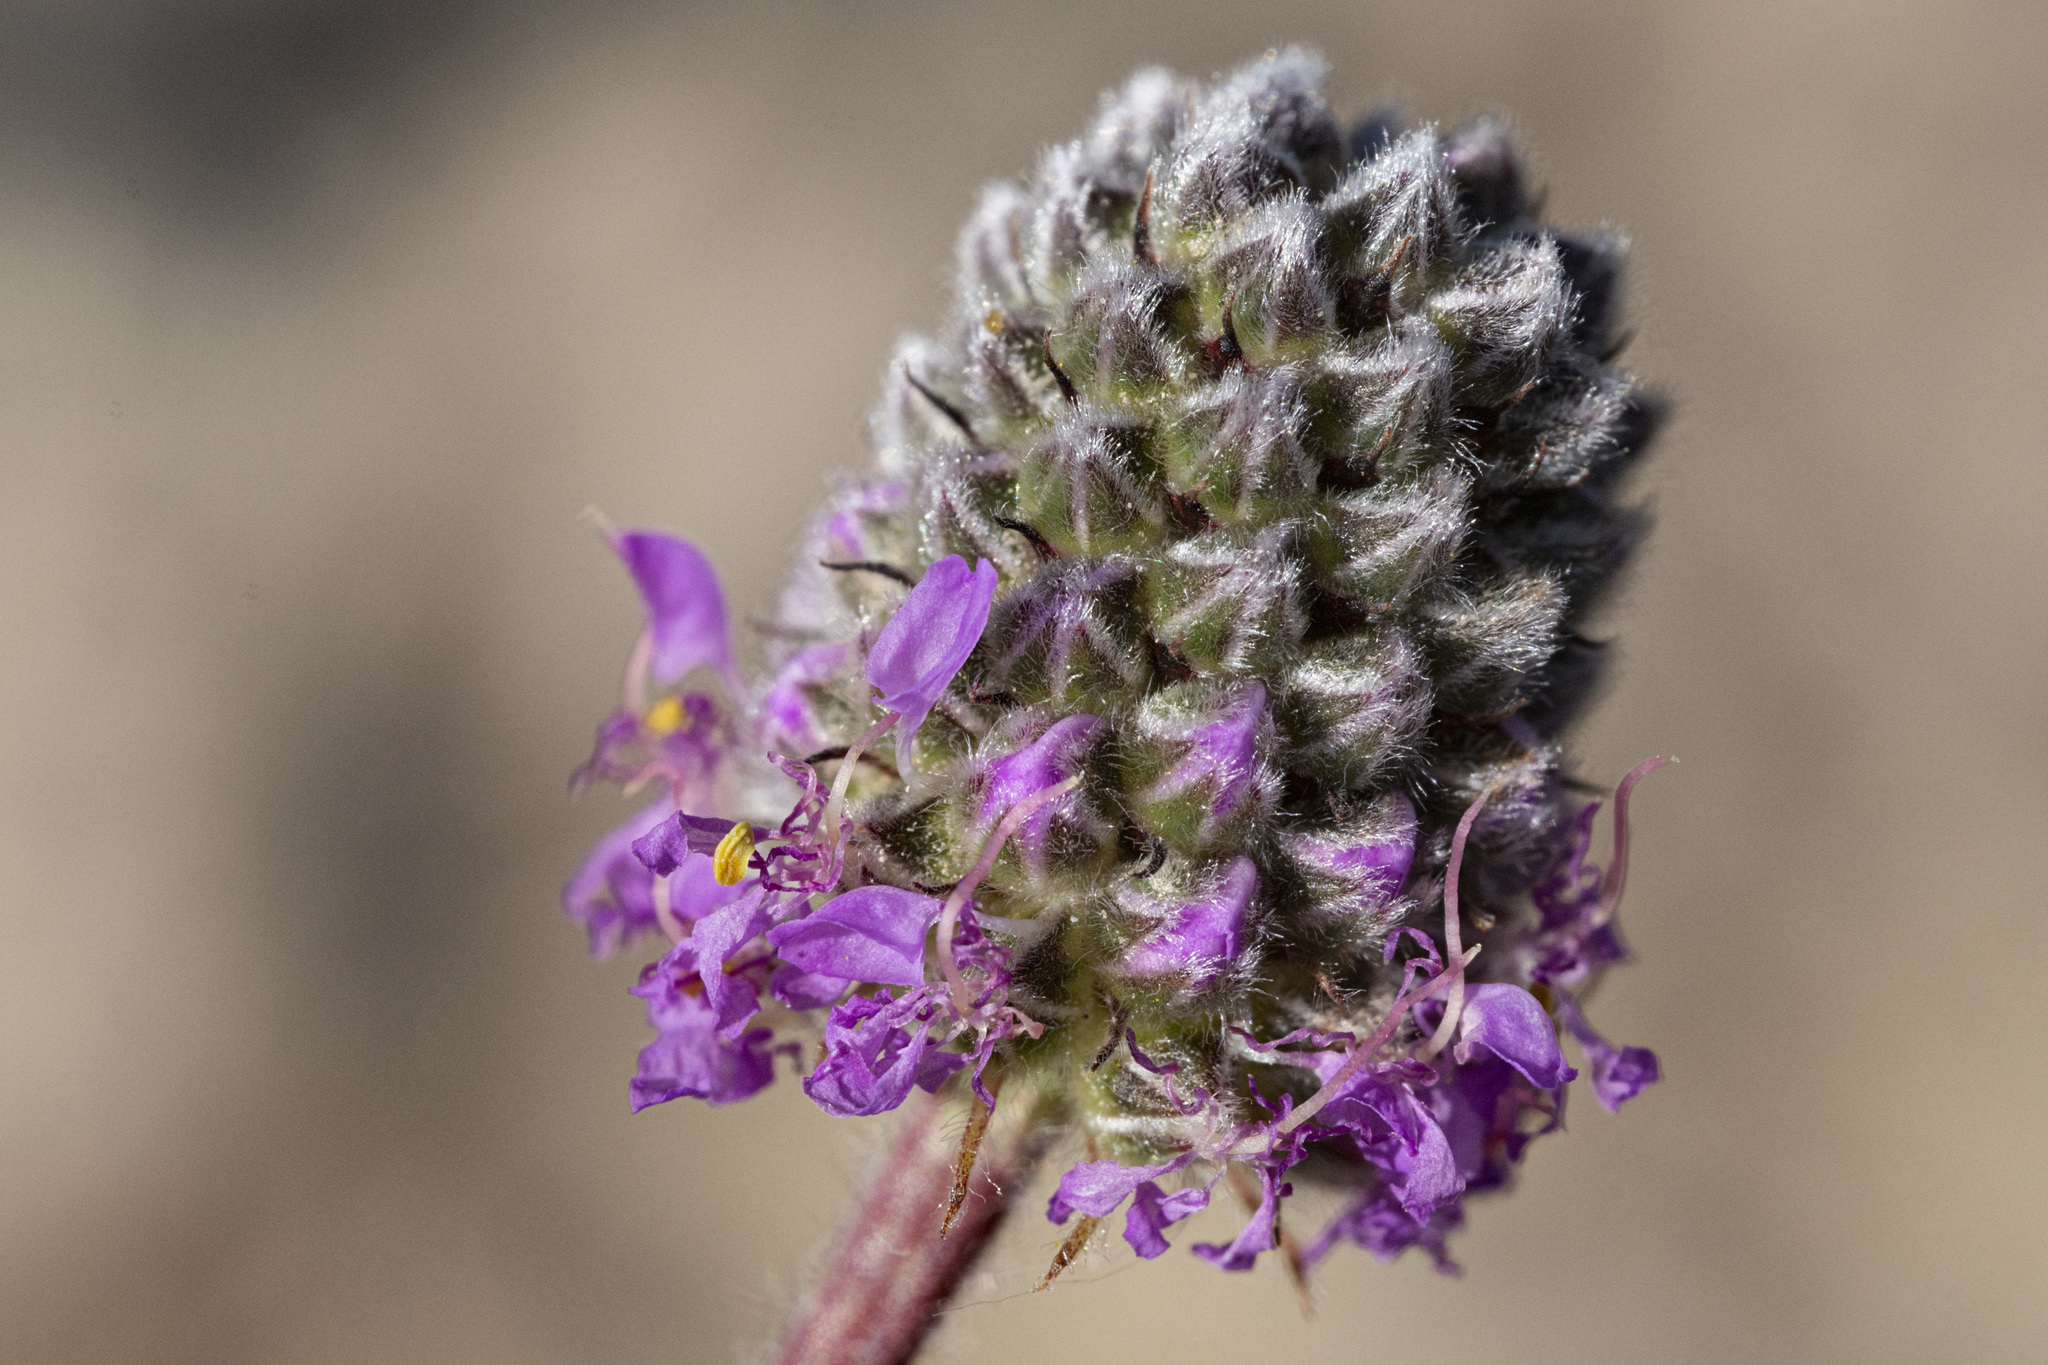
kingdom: Plantae
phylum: Tracheophyta
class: Magnoliopsida
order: Fabales
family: Fabaceae
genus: Dalea
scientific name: Dalea purpurea
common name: Purple prairie-clover
